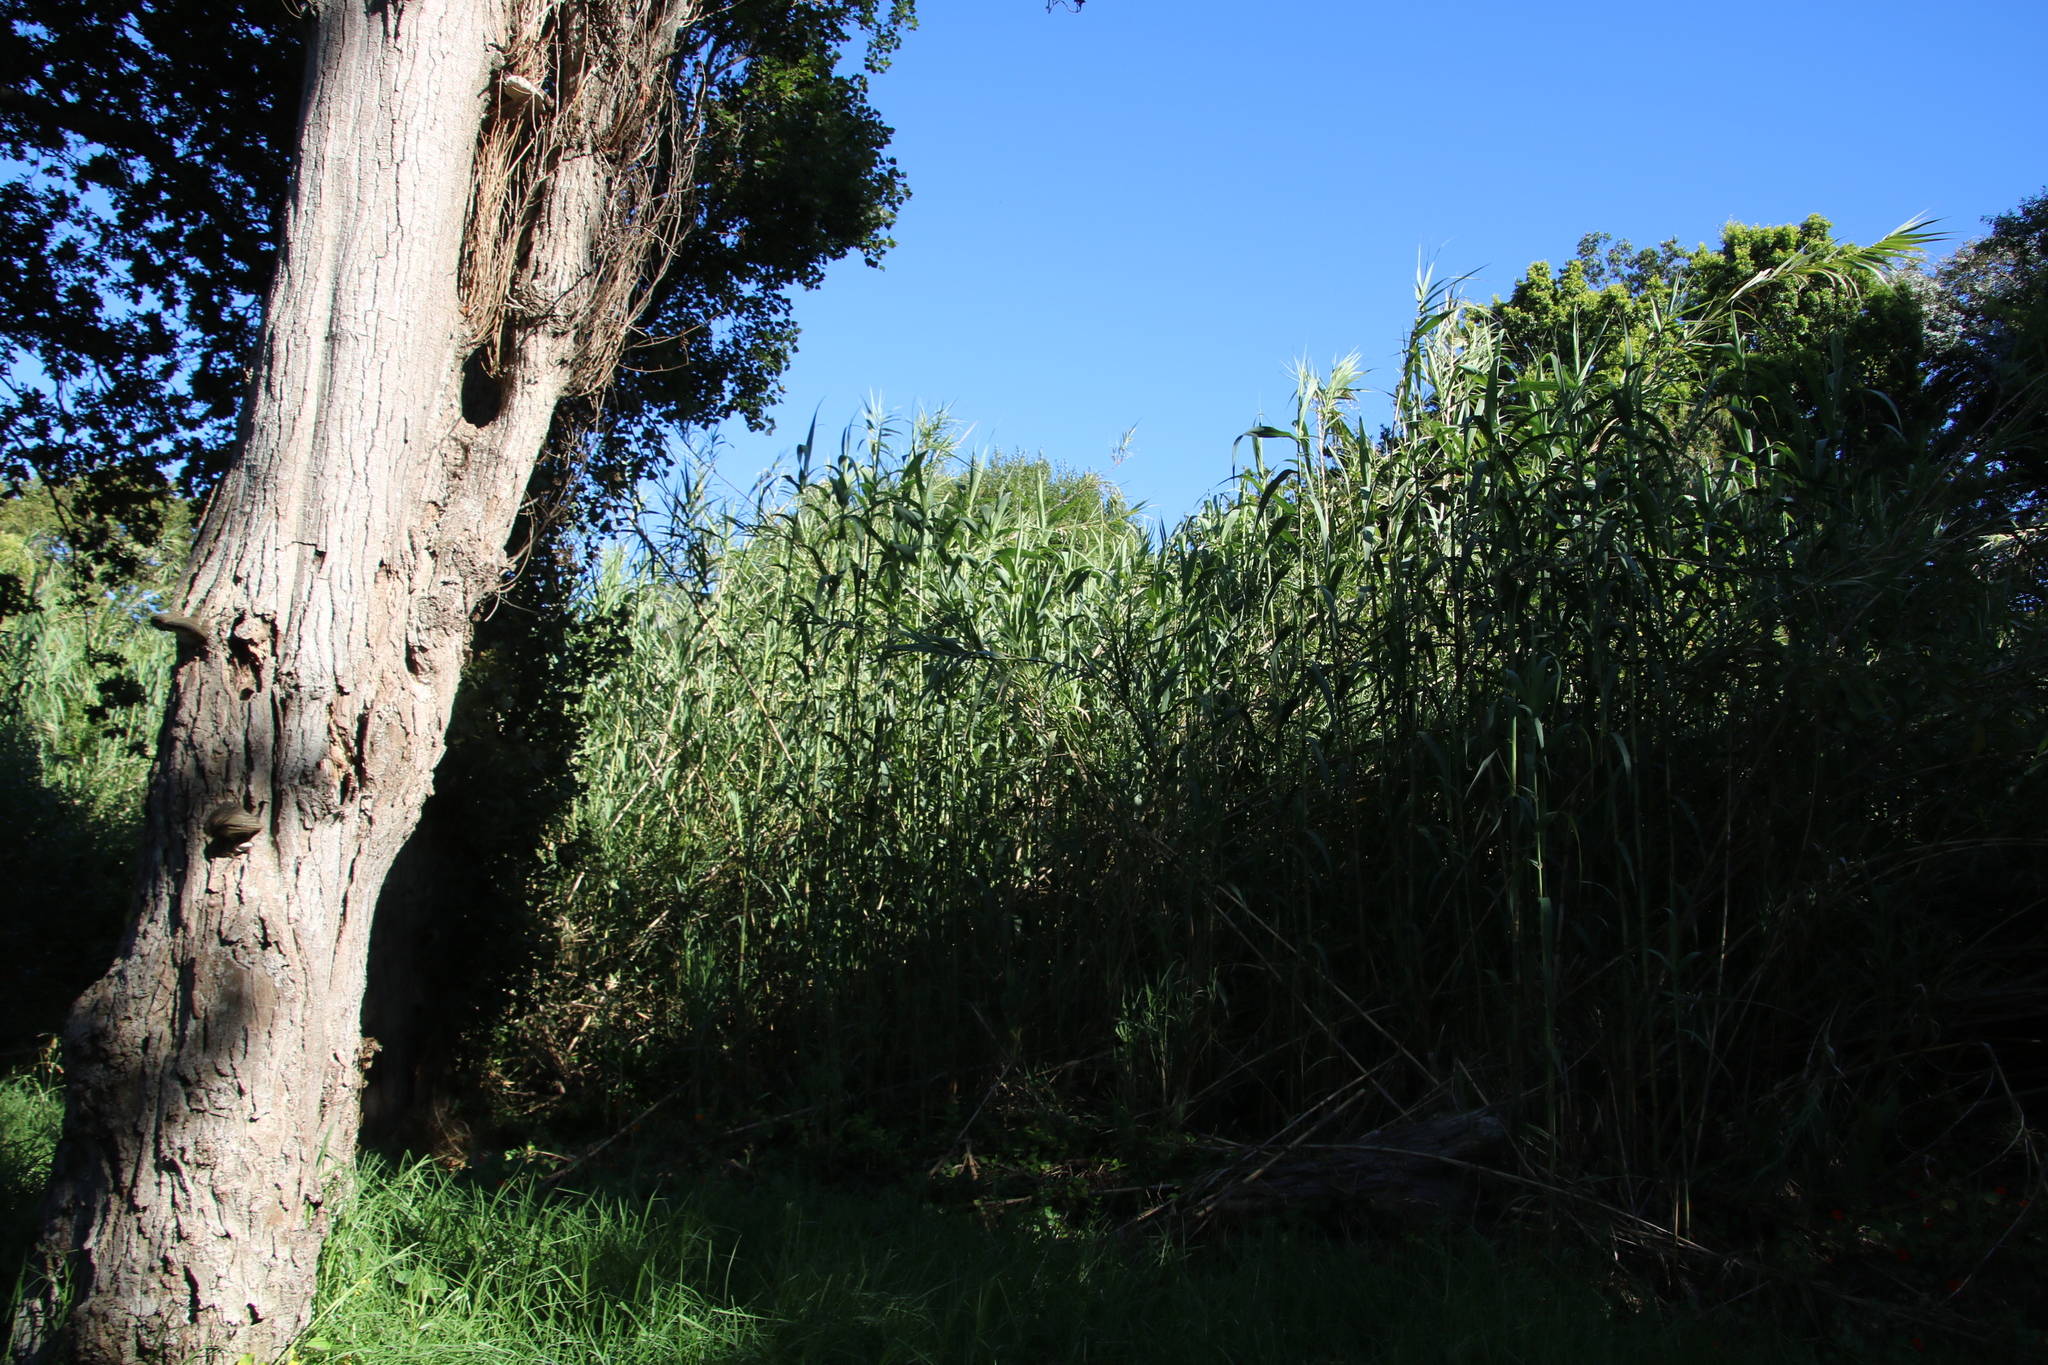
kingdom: Plantae
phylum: Tracheophyta
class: Liliopsida
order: Poales
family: Poaceae
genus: Arundo
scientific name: Arundo donax
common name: Giant reed
